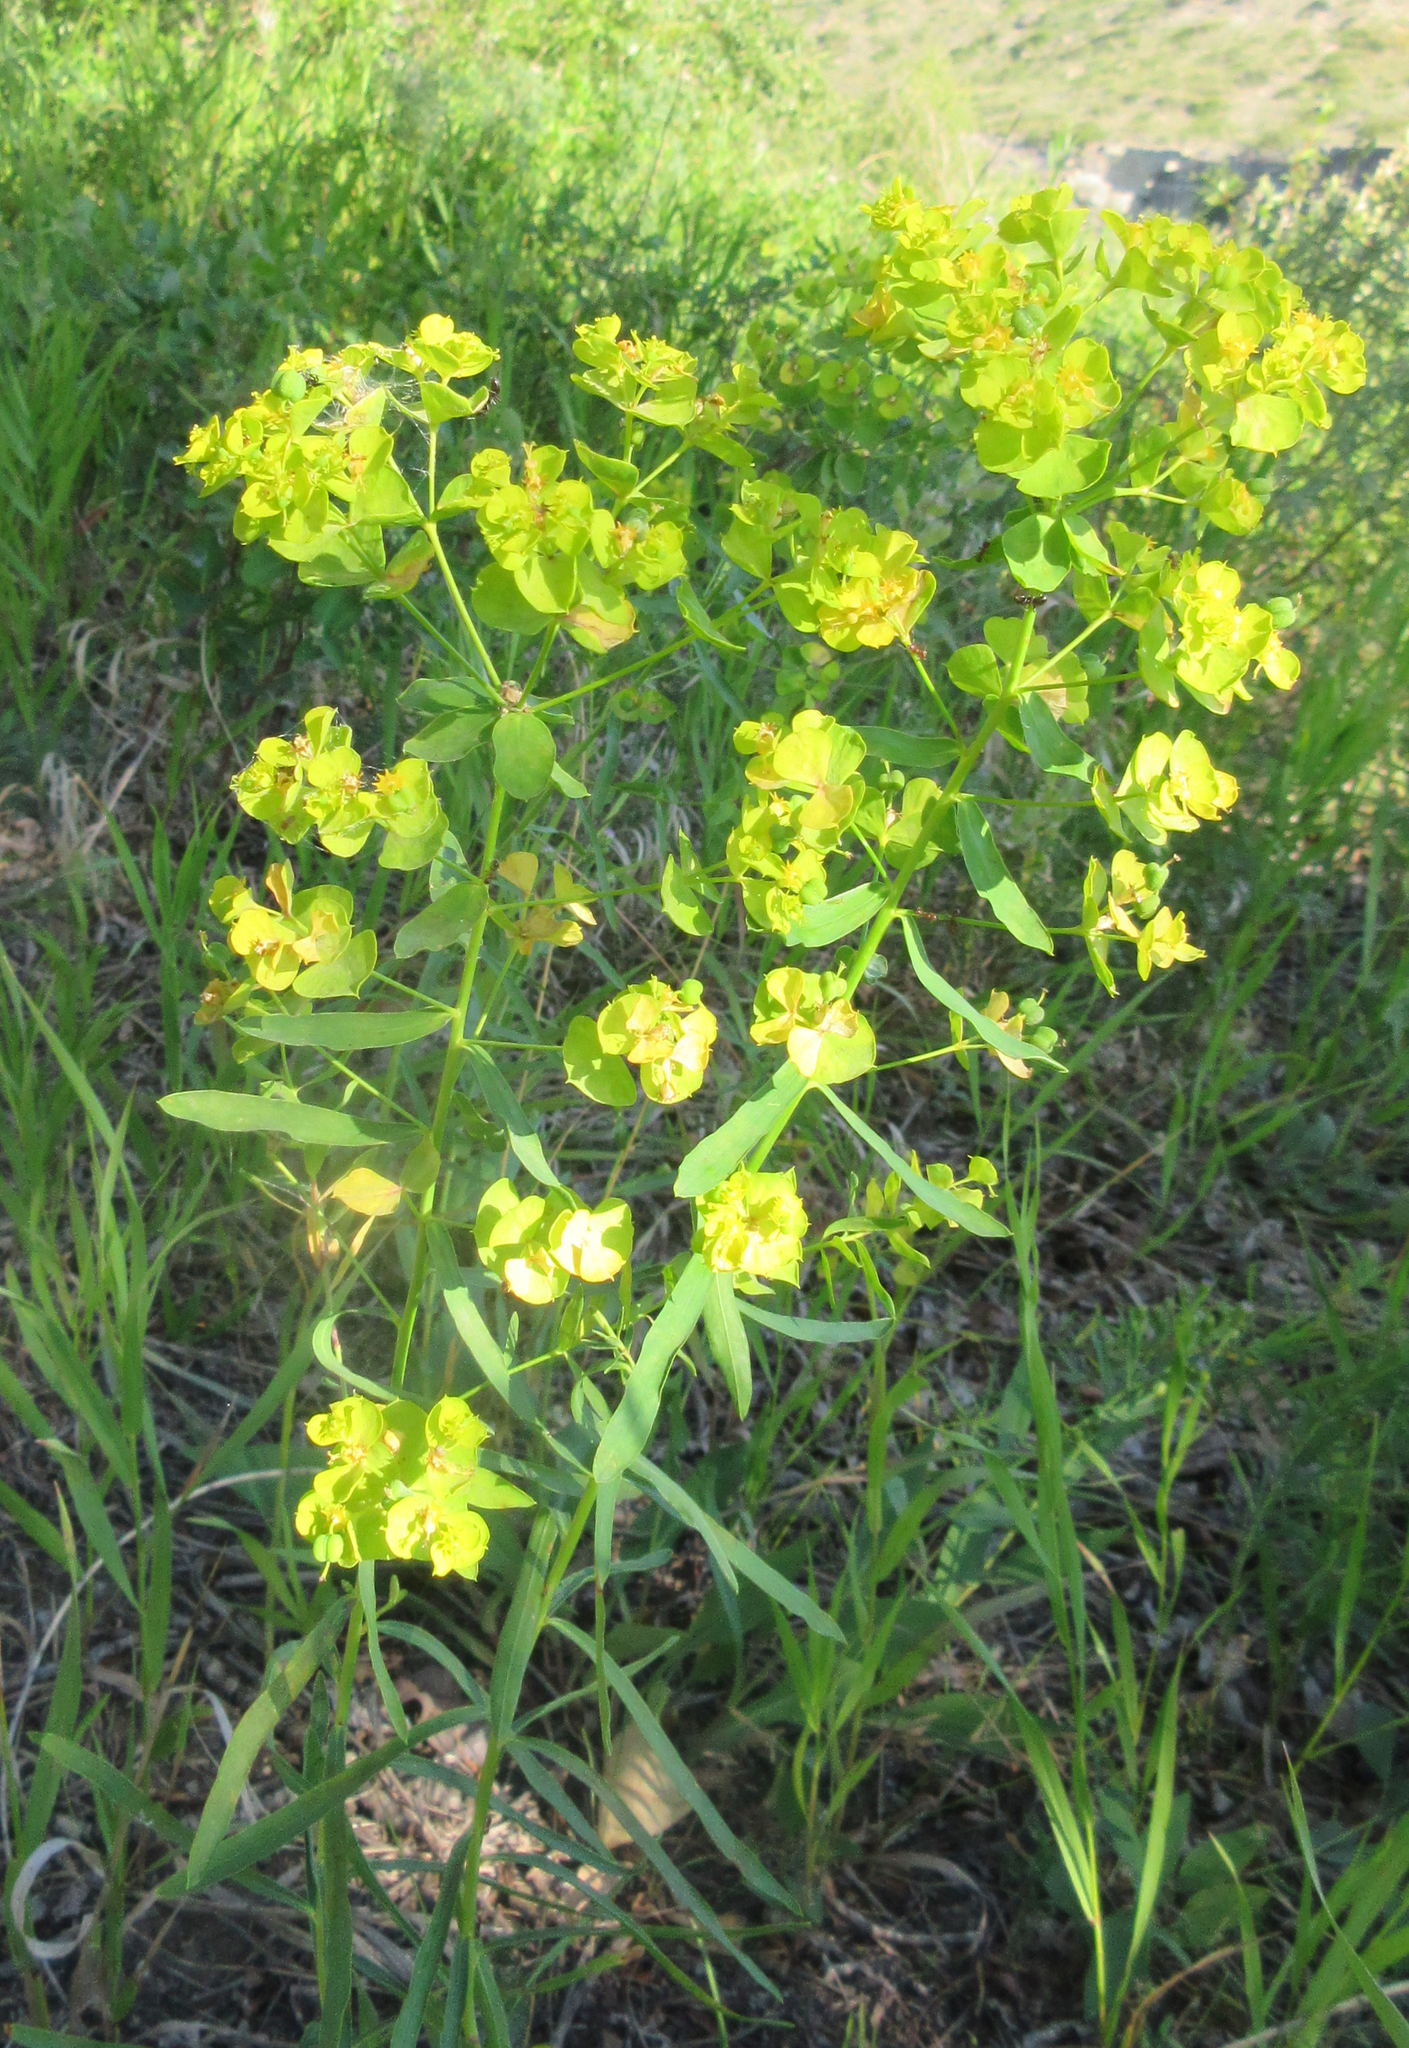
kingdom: Plantae
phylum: Tracheophyta
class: Magnoliopsida
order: Malpighiales
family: Euphorbiaceae
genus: Euphorbia
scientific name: Euphorbia virgata
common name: Leafy spurge
